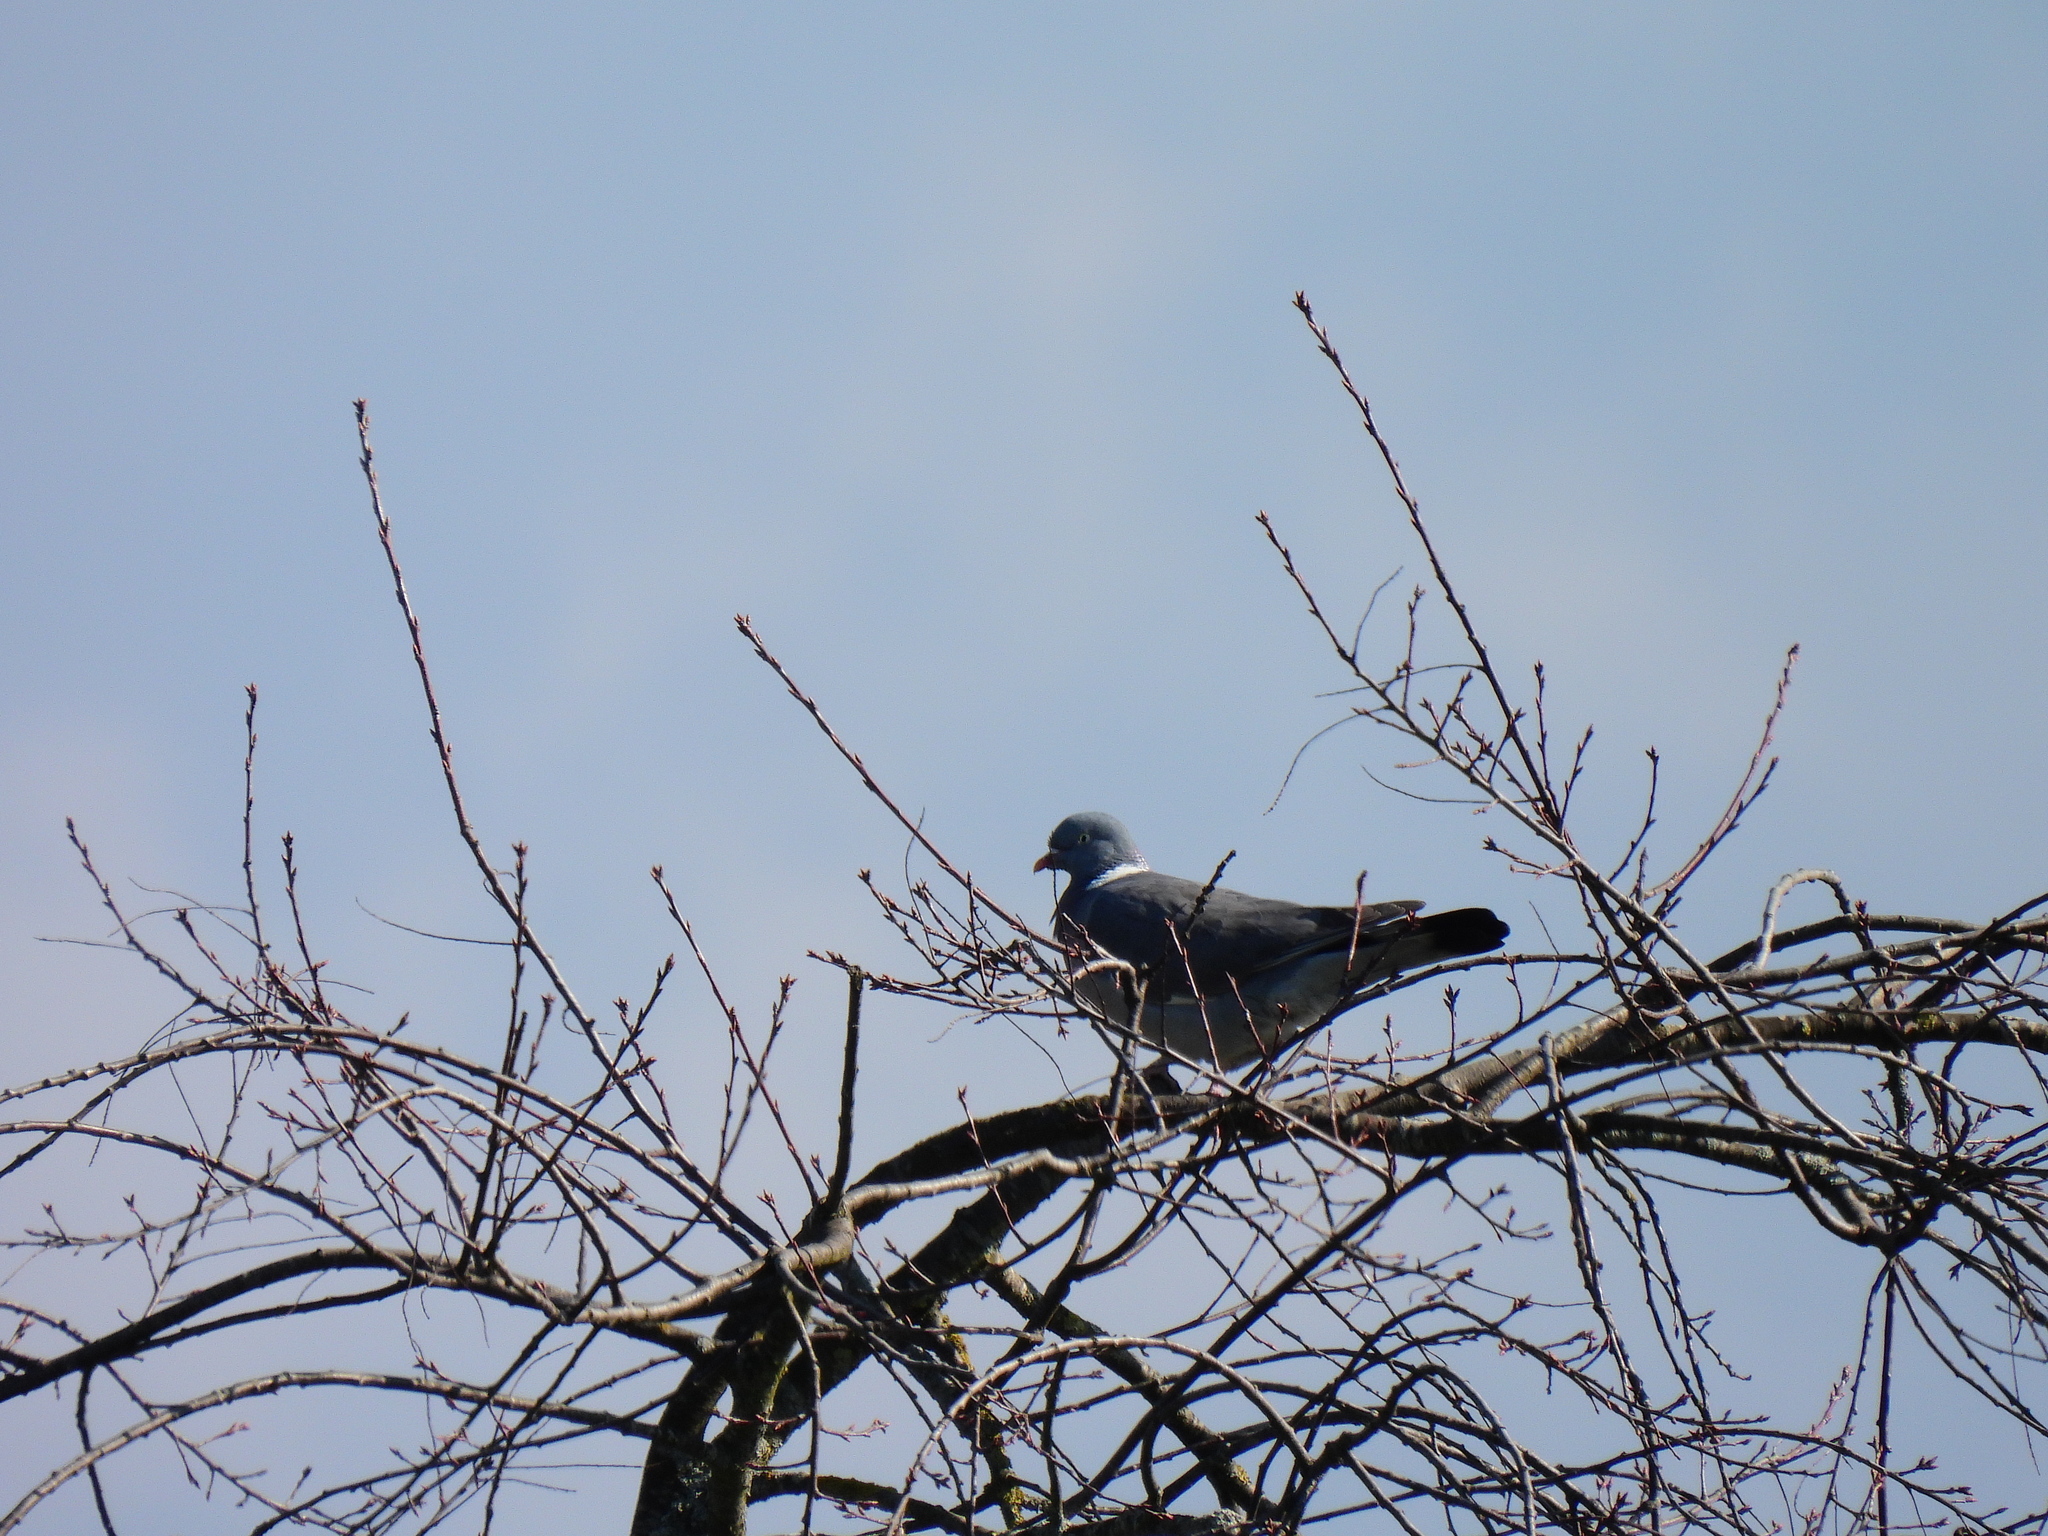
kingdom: Animalia
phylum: Chordata
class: Aves
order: Columbiformes
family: Columbidae
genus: Columba
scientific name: Columba palumbus
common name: Common wood pigeon
